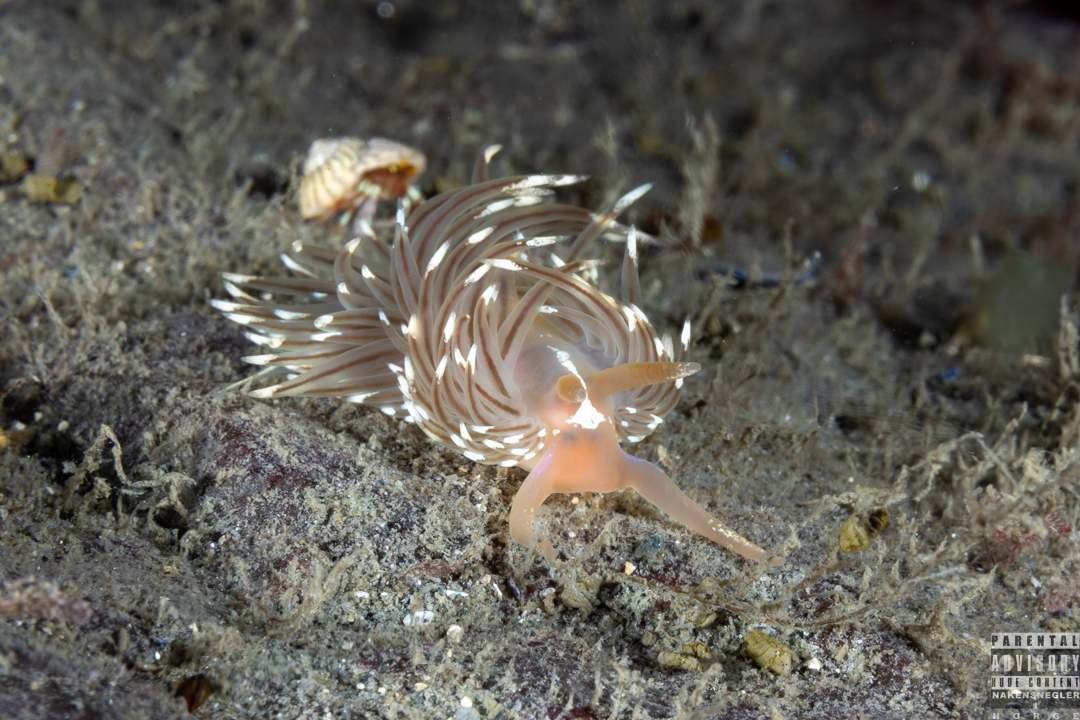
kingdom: Animalia
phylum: Mollusca
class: Gastropoda
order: Nudibranchia
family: Facelinidae
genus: Facelina
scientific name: Facelina bostoniensis
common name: Boston facelina
